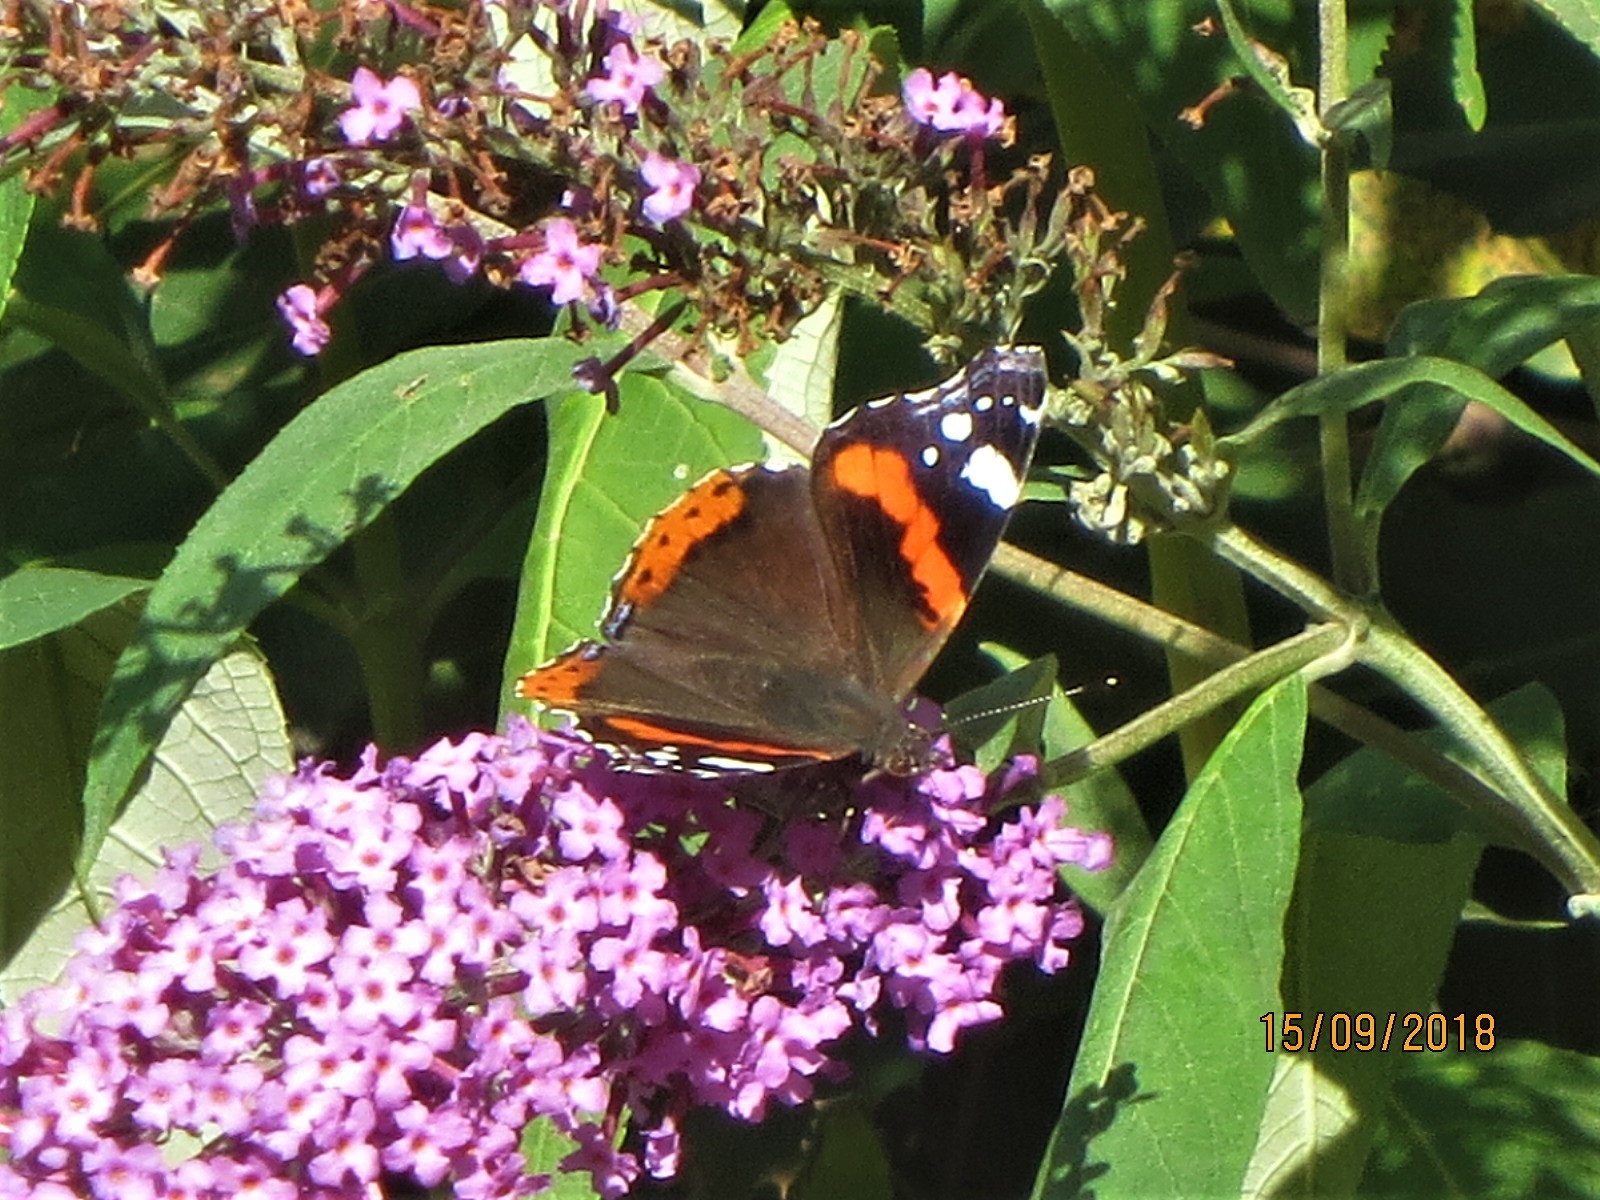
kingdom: Animalia
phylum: Arthropoda
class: Insecta
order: Lepidoptera
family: Nymphalidae
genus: Vanessa
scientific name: Vanessa atalanta
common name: Red admiral
